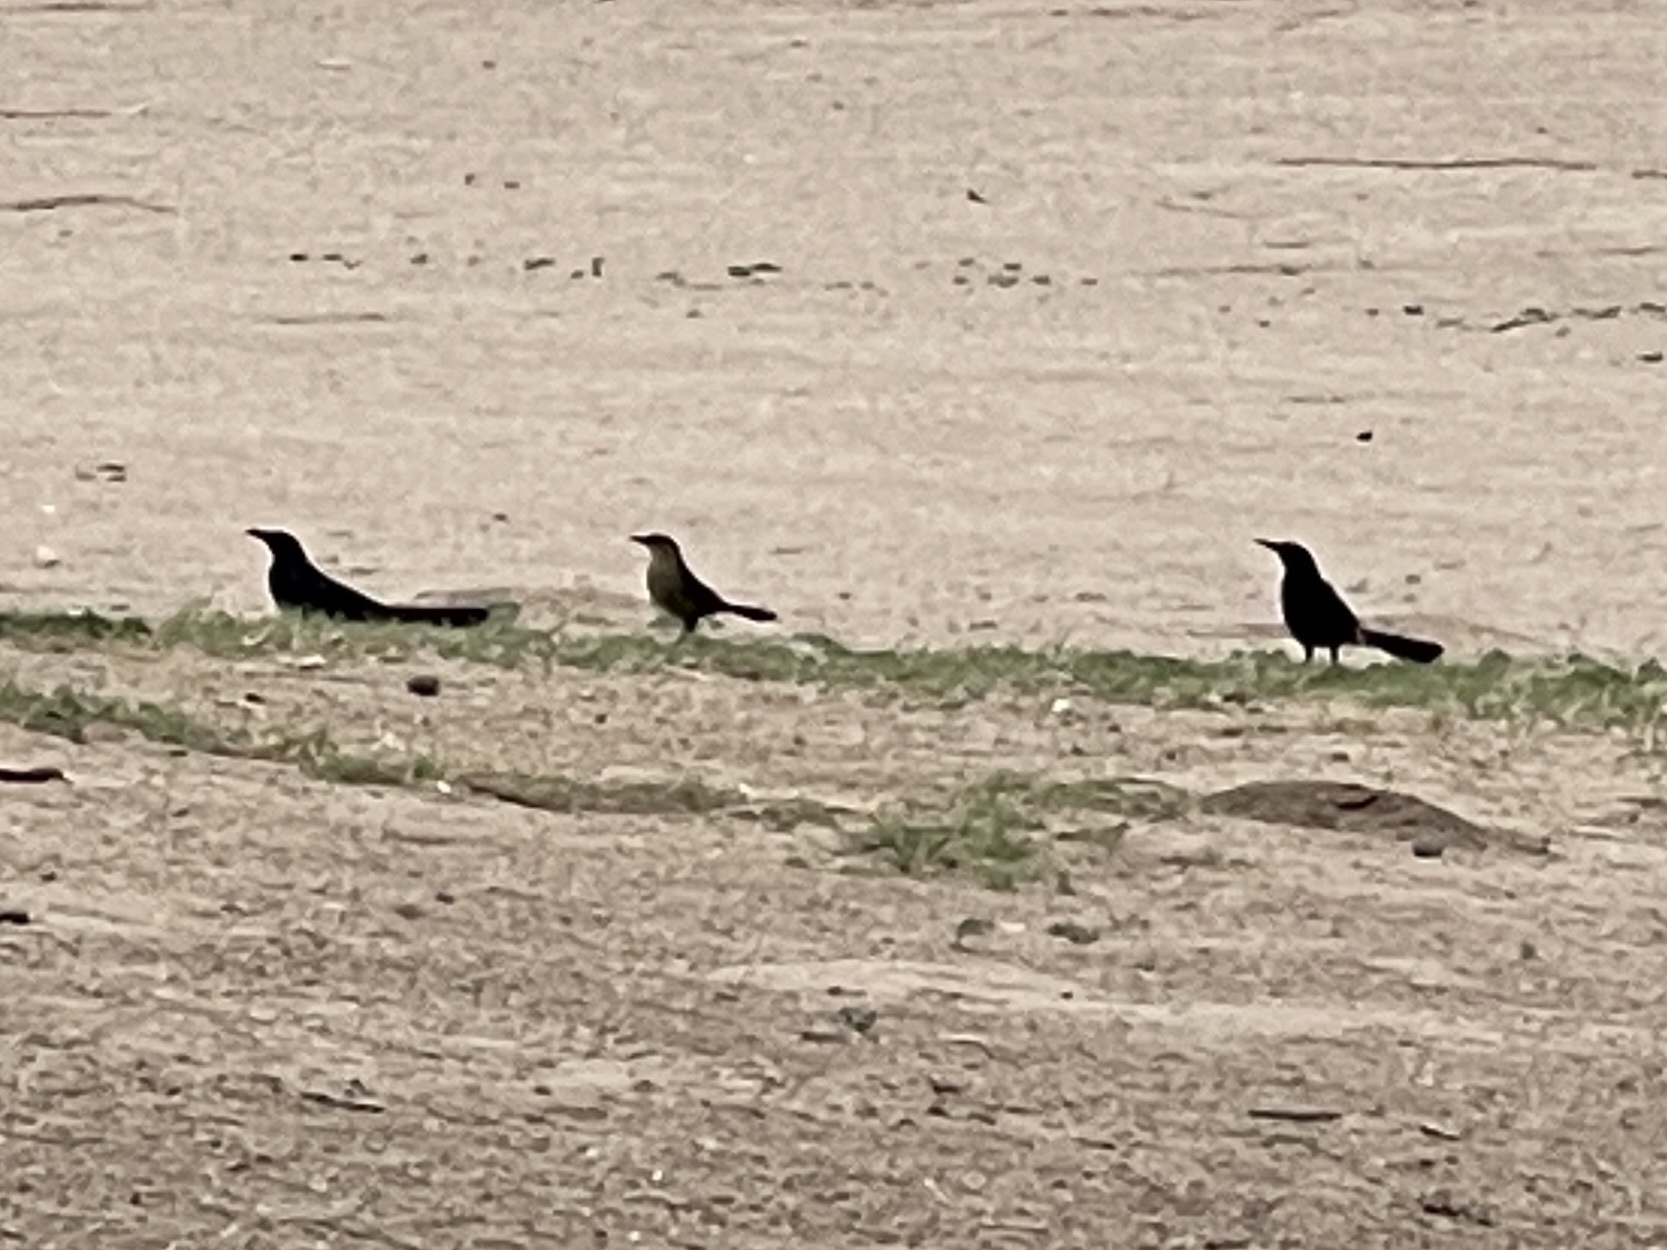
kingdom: Animalia
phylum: Chordata
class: Aves
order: Passeriformes
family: Icteridae
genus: Quiscalus
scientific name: Quiscalus mexicanus
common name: Great-tailed grackle
